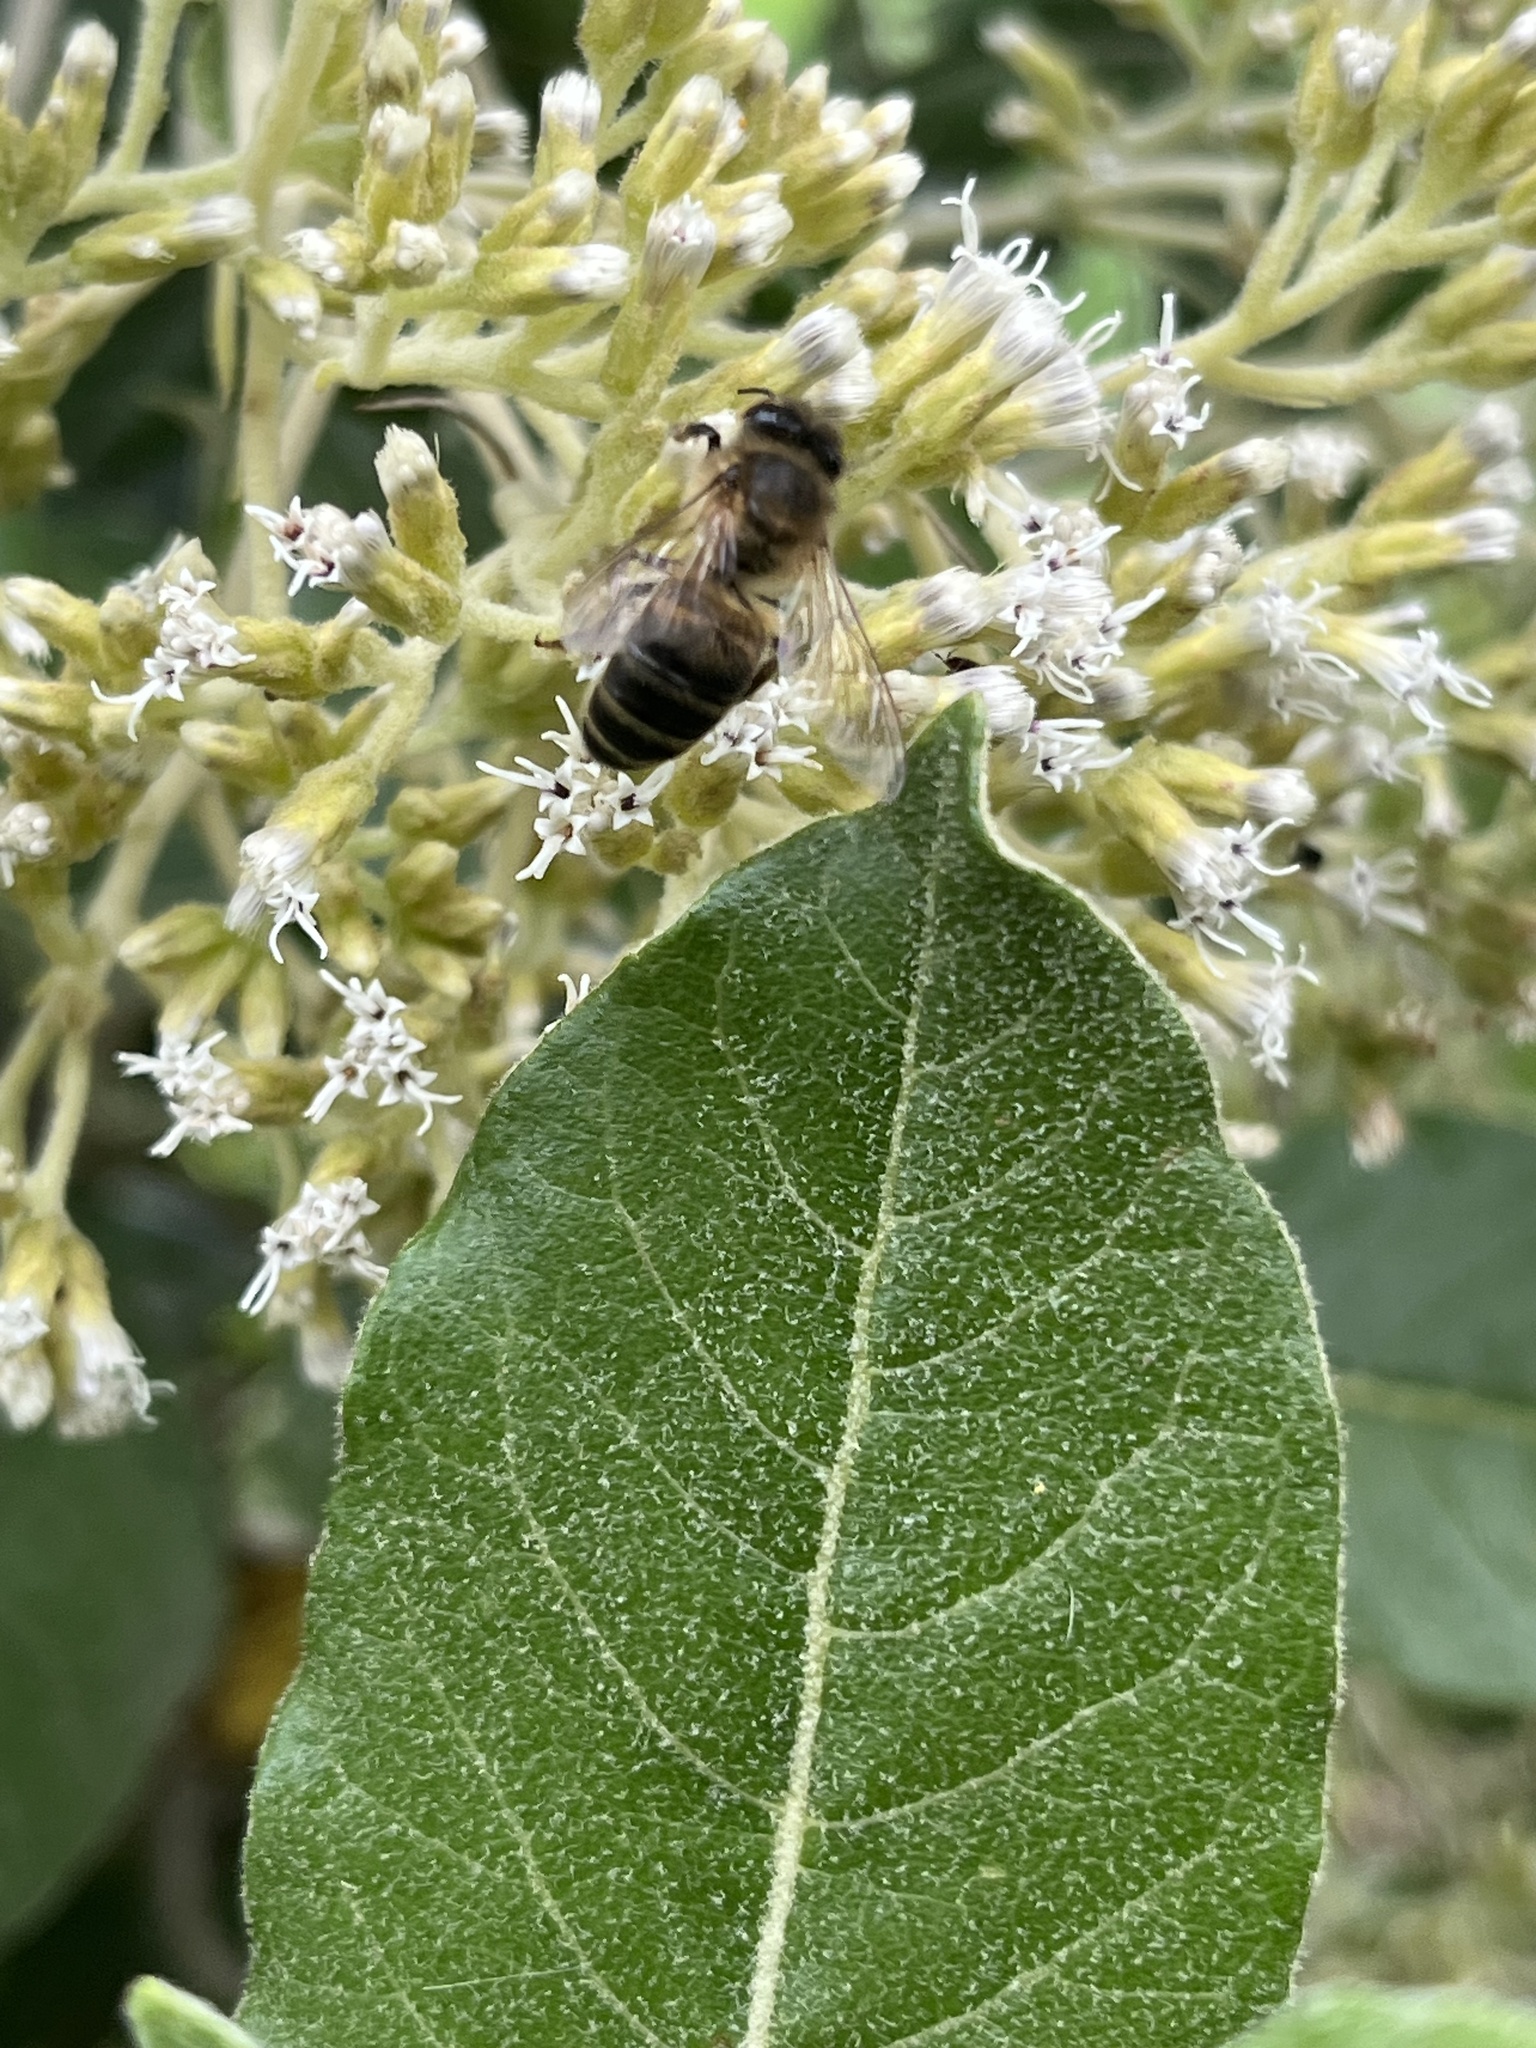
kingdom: Animalia
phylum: Arthropoda
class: Insecta
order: Hymenoptera
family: Apidae
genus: Apis
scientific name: Apis mellifera
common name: Honey bee
